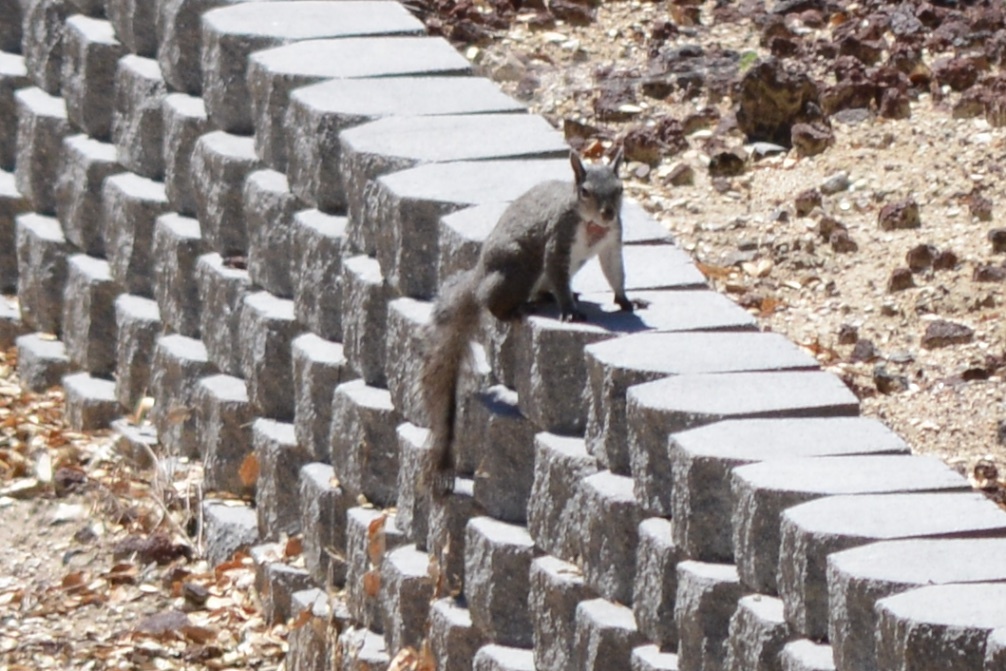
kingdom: Animalia
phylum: Chordata
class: Mammalia
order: Rodentia
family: Sciuridae
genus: Sciurus
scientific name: Sciurus griseus
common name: Western gray squirrel
